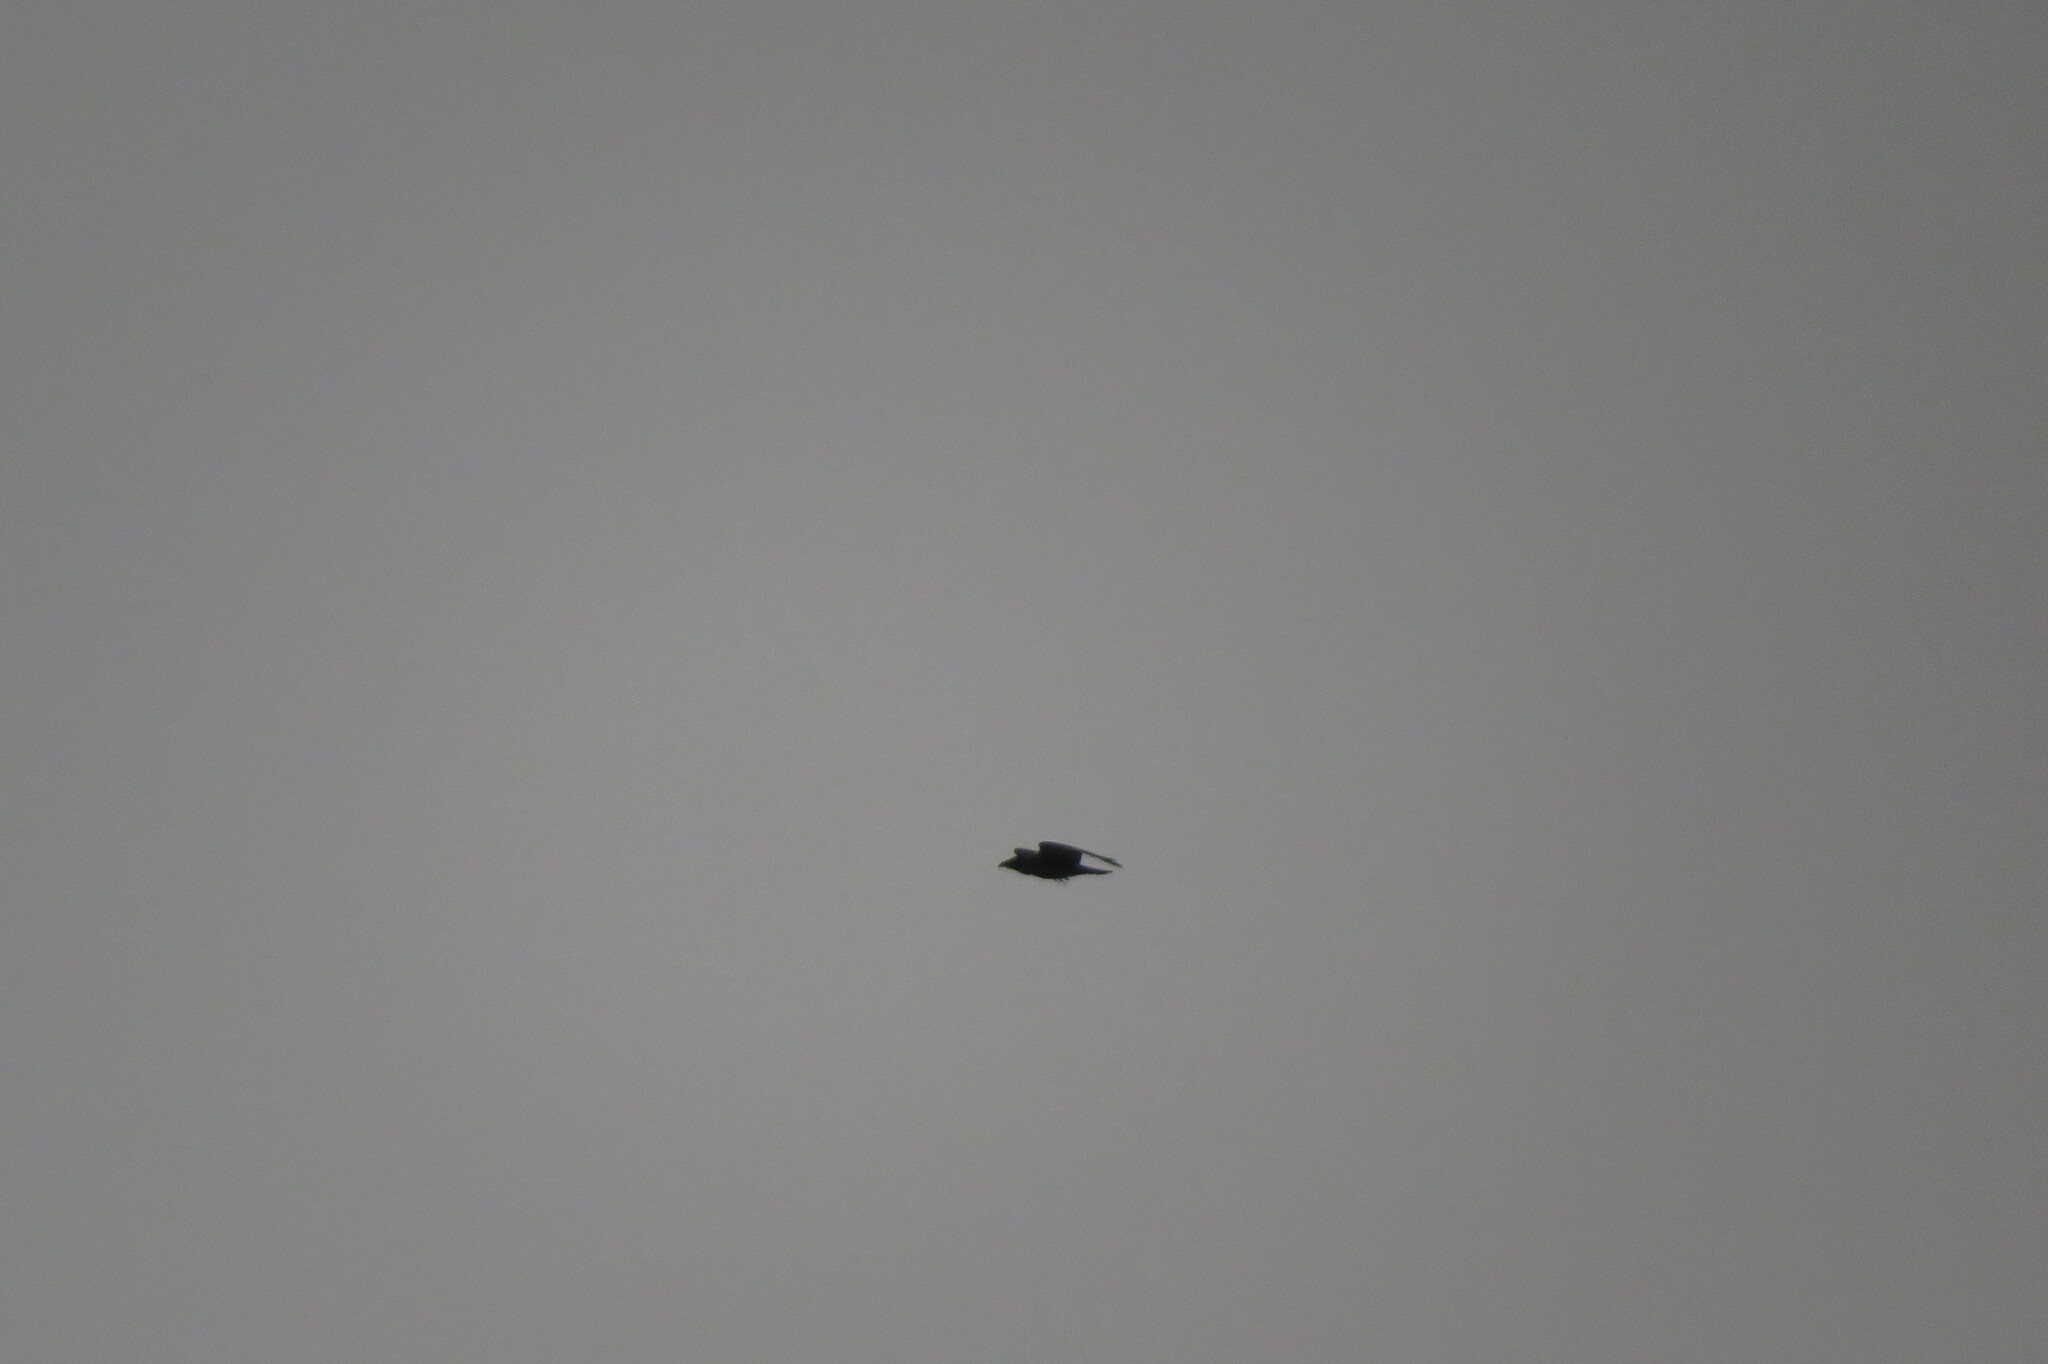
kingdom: Animalia
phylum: Chordata
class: Aves
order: Passeriformes
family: Corvidae
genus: Corvus
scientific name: Corvus corax
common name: Common raven
